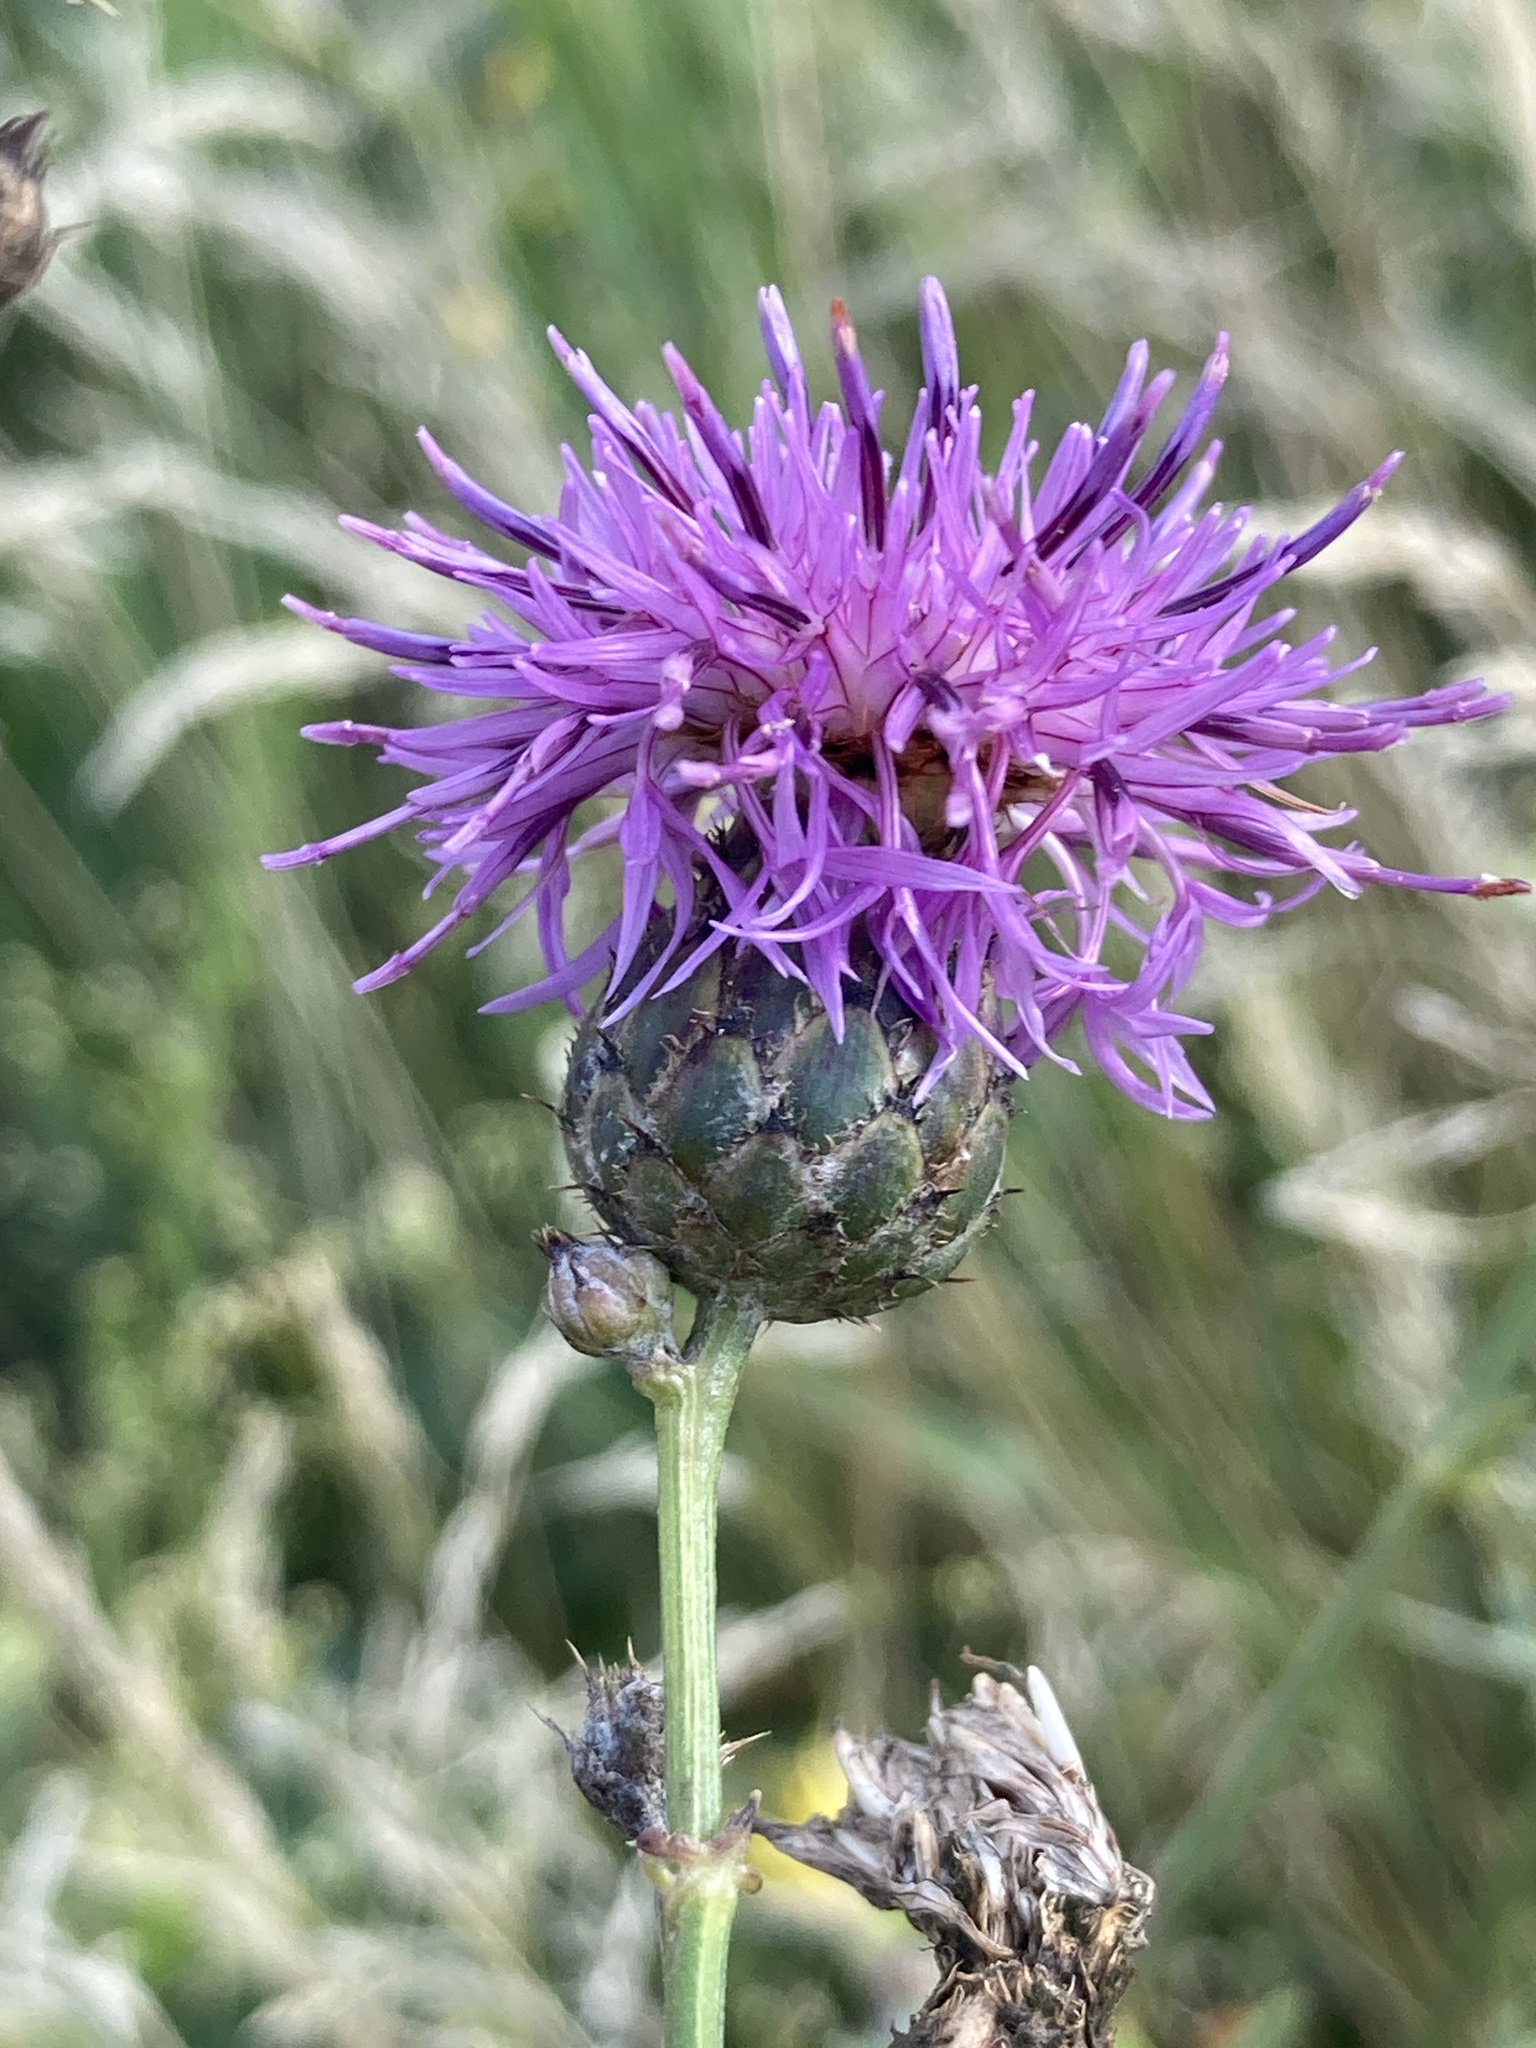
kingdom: Plantae
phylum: Tracheophyta
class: Magnoliopsida
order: Asterales
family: Asteraceae
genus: Centaurea
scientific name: Centaurea scabiosa
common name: Greater knapweed
